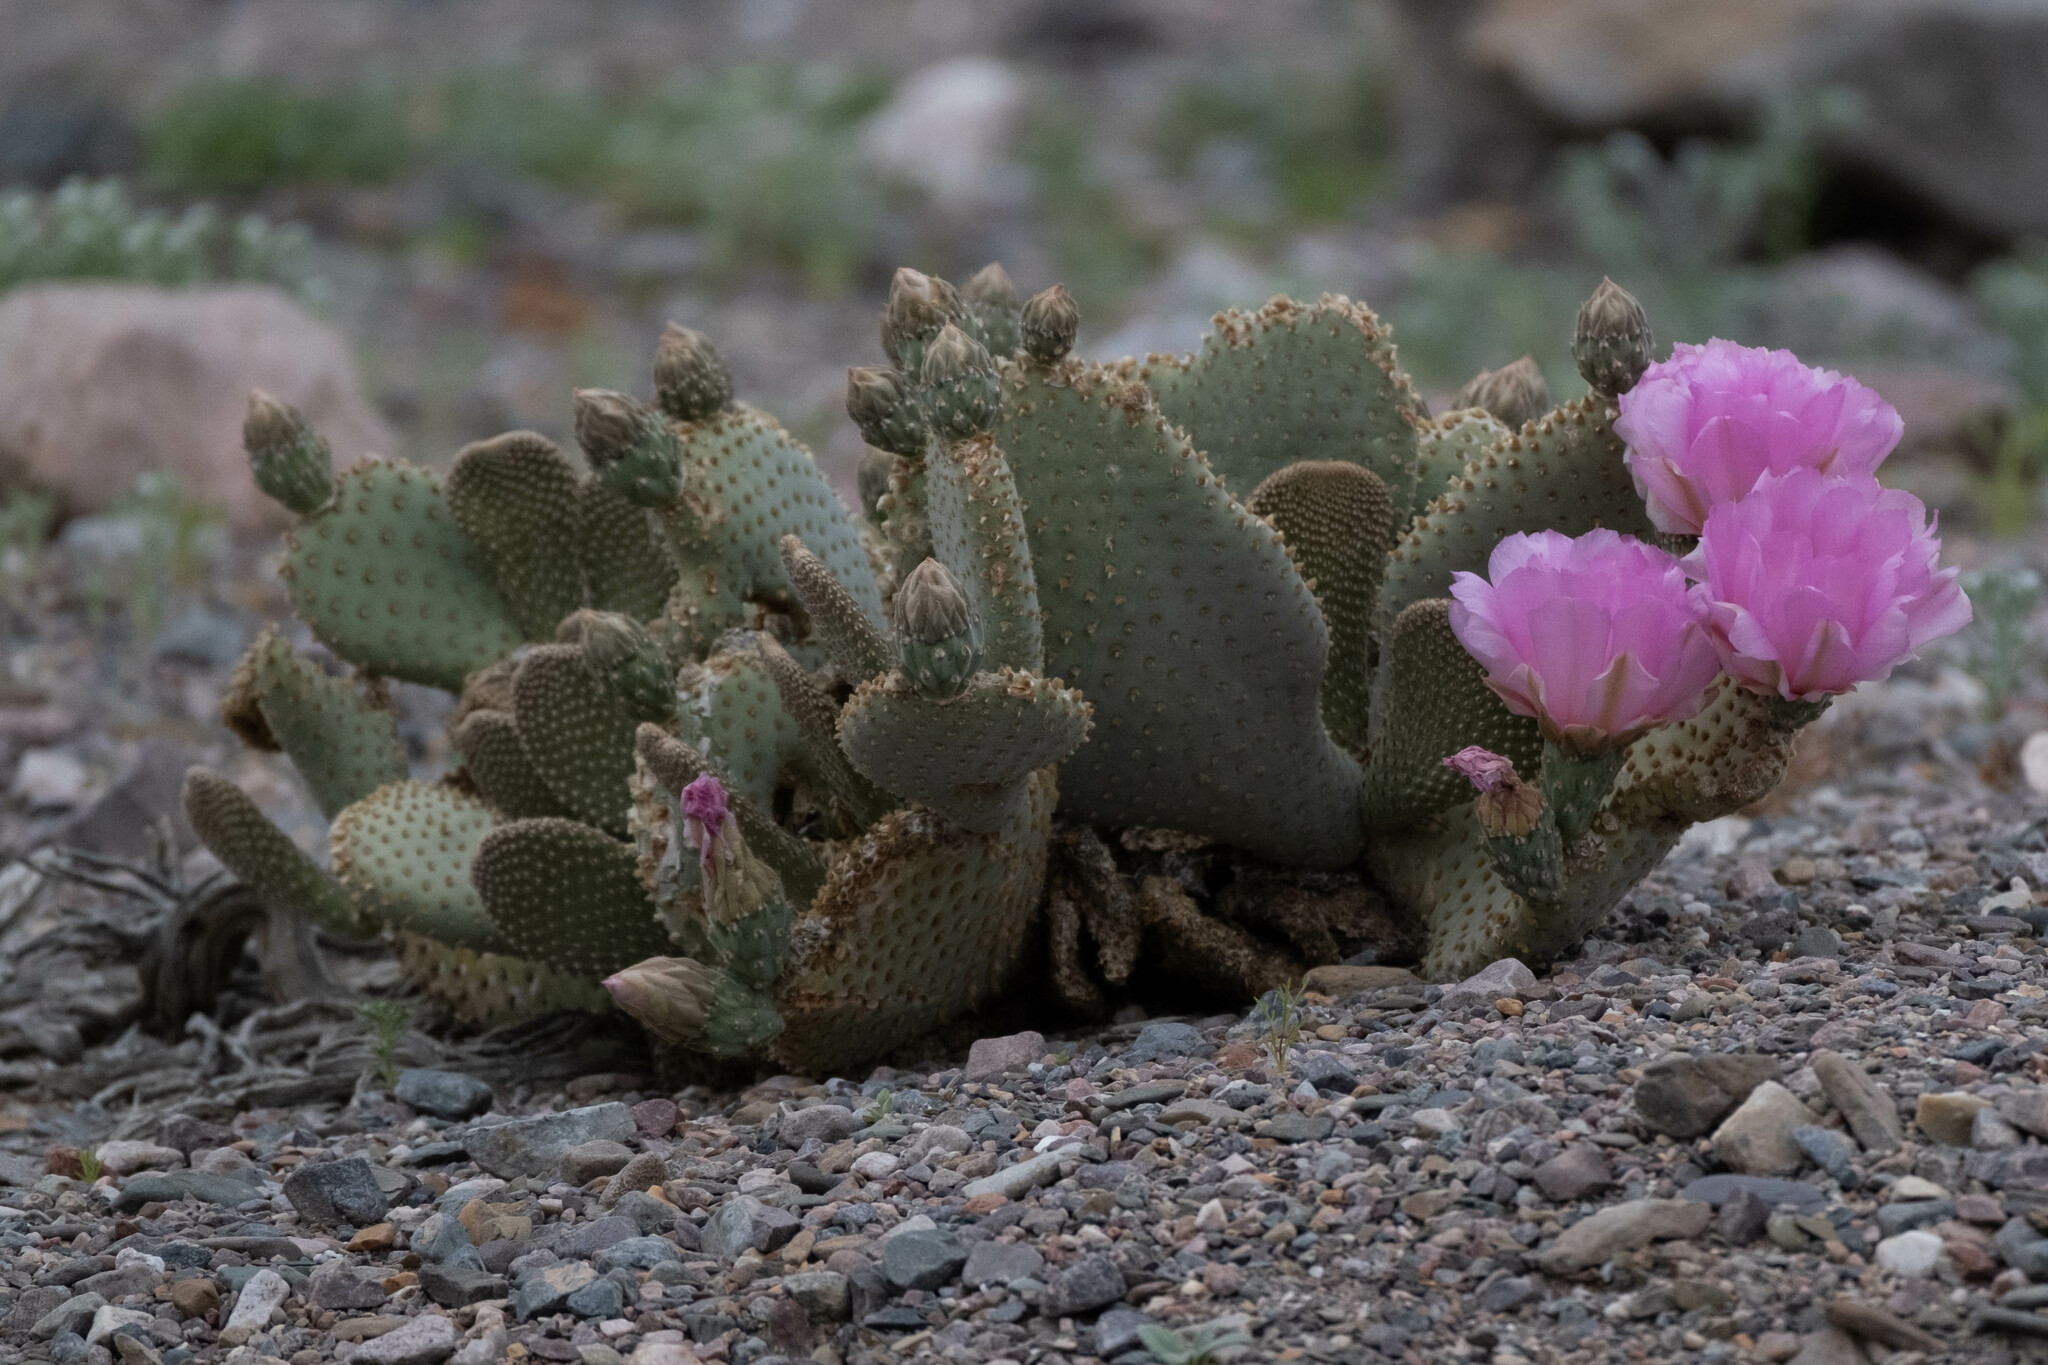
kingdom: Plantae
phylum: Tracheophyta
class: Magnoliopsida
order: Caryophyllales
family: Cactaceae
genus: Opuntia
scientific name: Opuntia basilaris
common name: Beavertail prickly-pear
